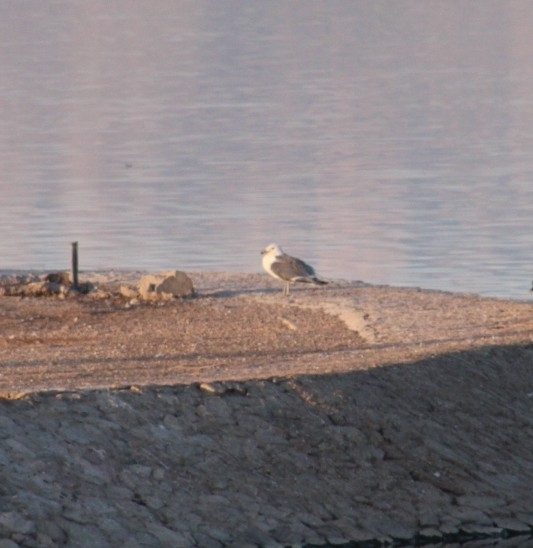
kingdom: Animalia
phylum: Chordata
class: Aves
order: Charadriiformes
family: Laridae
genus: Larus
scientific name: Larus californicus
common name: California gull
